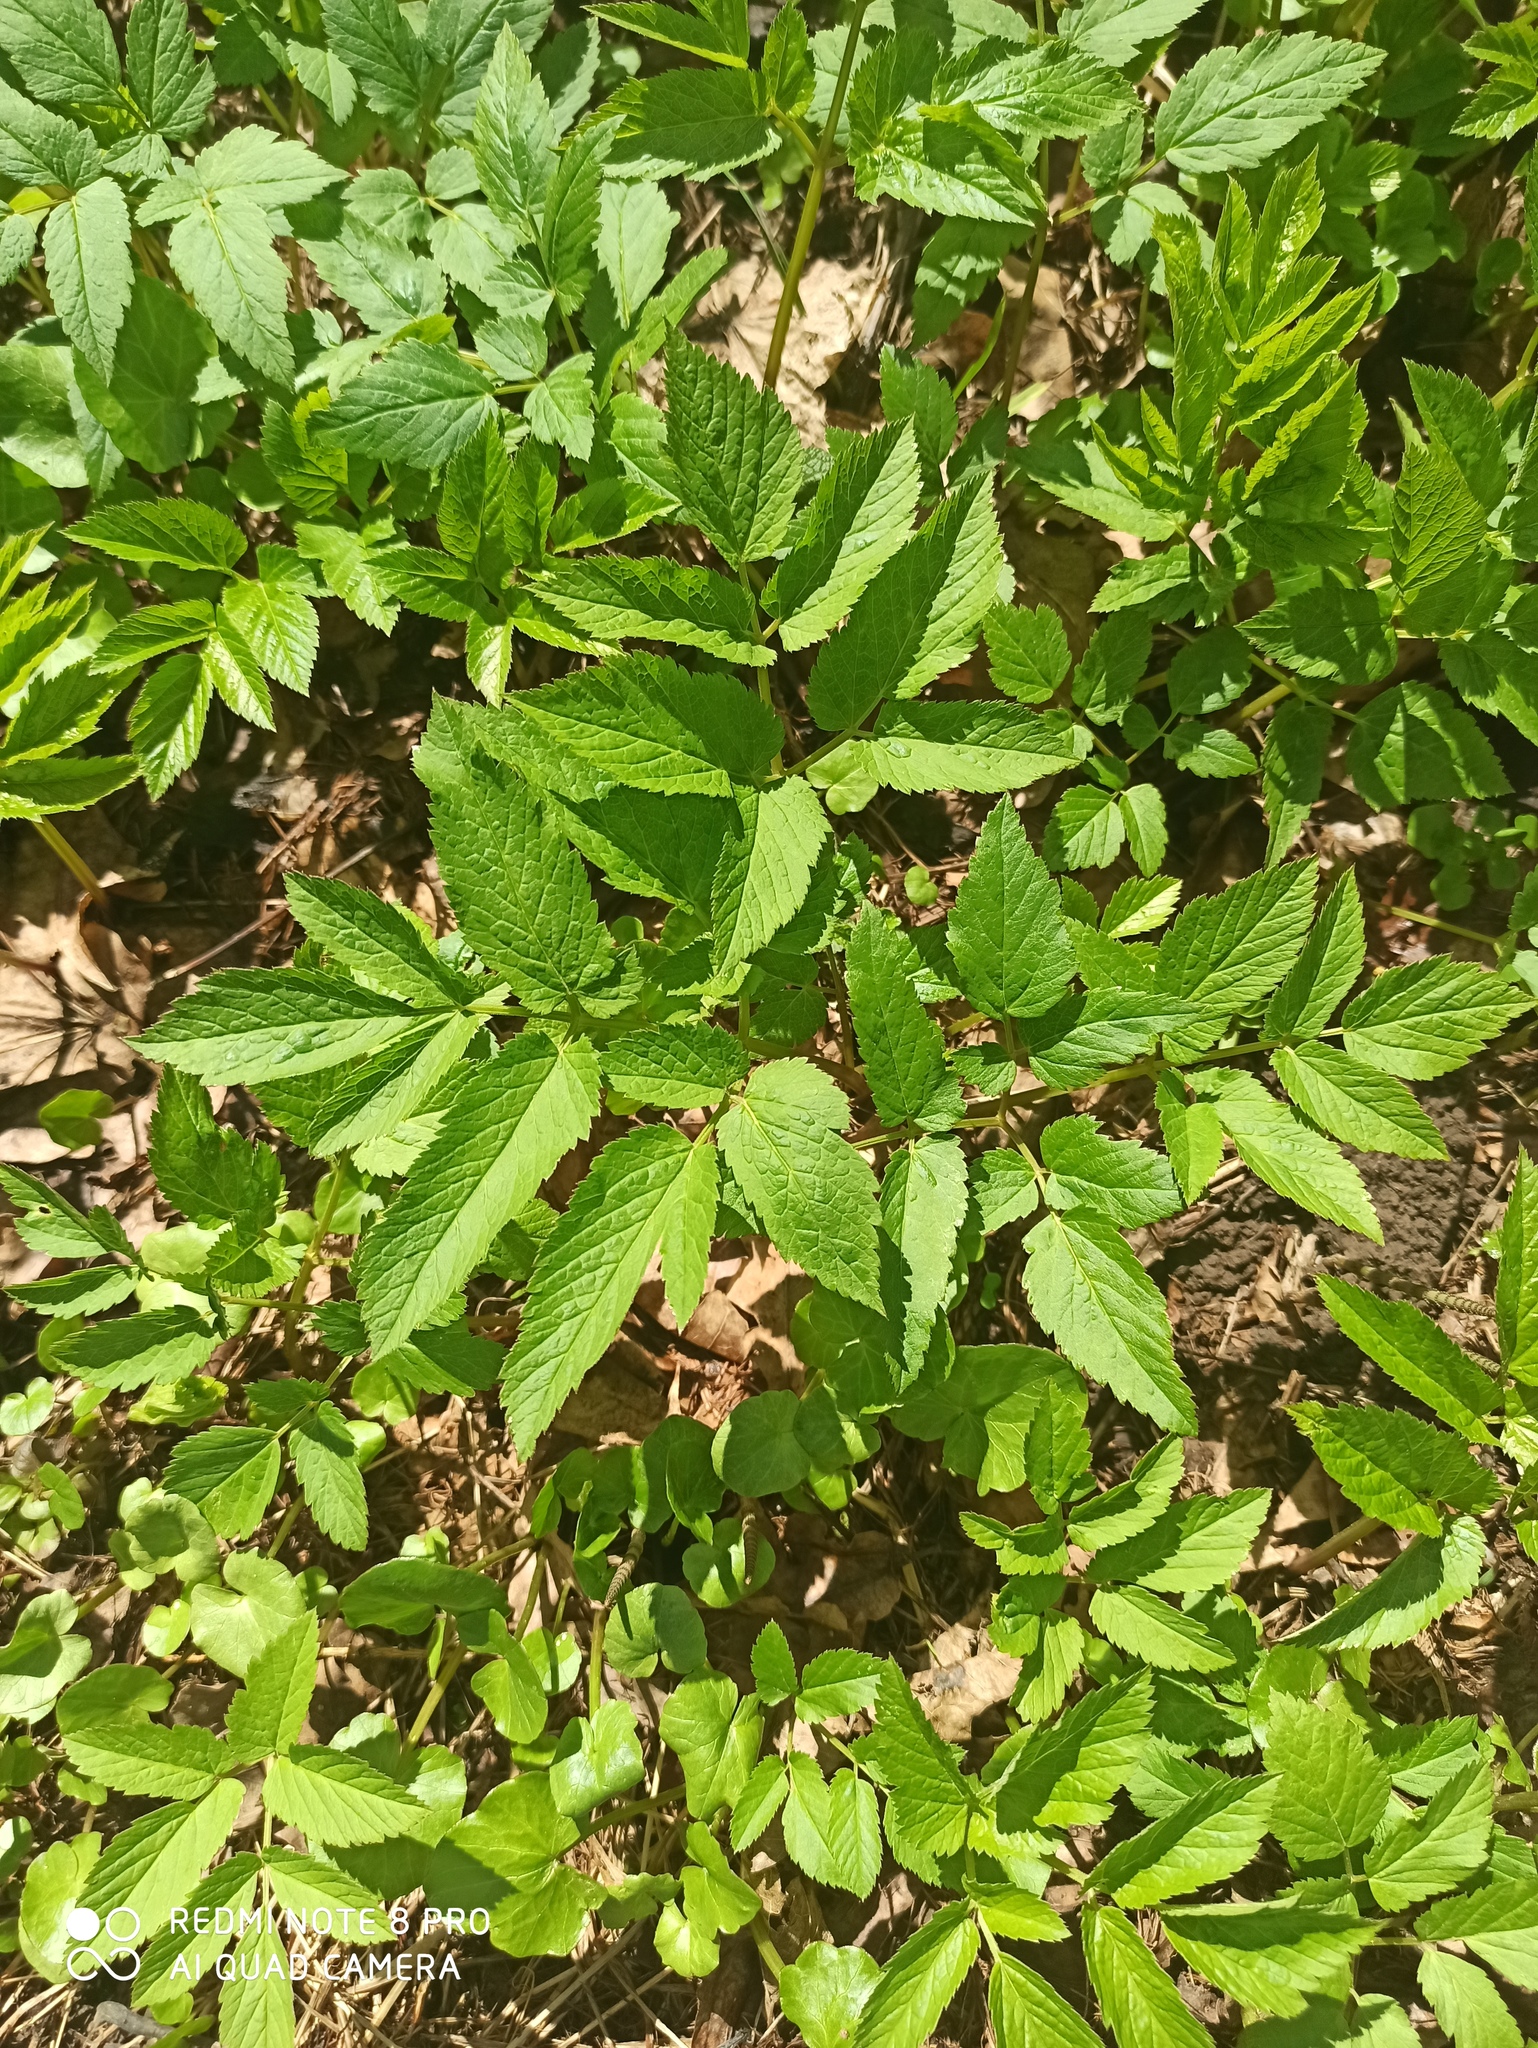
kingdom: Plantae
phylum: Tracheophyta
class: Magnoliopsida
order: Apiales
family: Apiaceae
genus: Aegopodium
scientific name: Aegopodium podagraria
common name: Ground-elder
